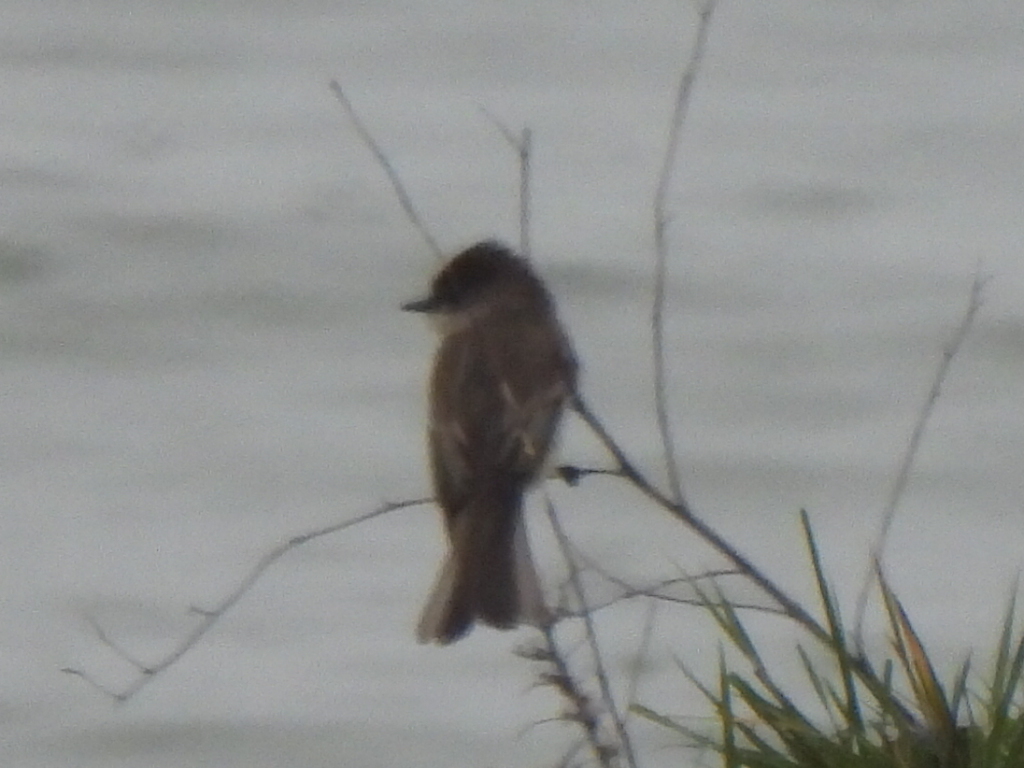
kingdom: Animalia
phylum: Chordata
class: Aves
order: Passeriformes
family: Tyrannidae
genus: Sayornis
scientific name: Sayornis phoebe
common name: Eastern phoebe
